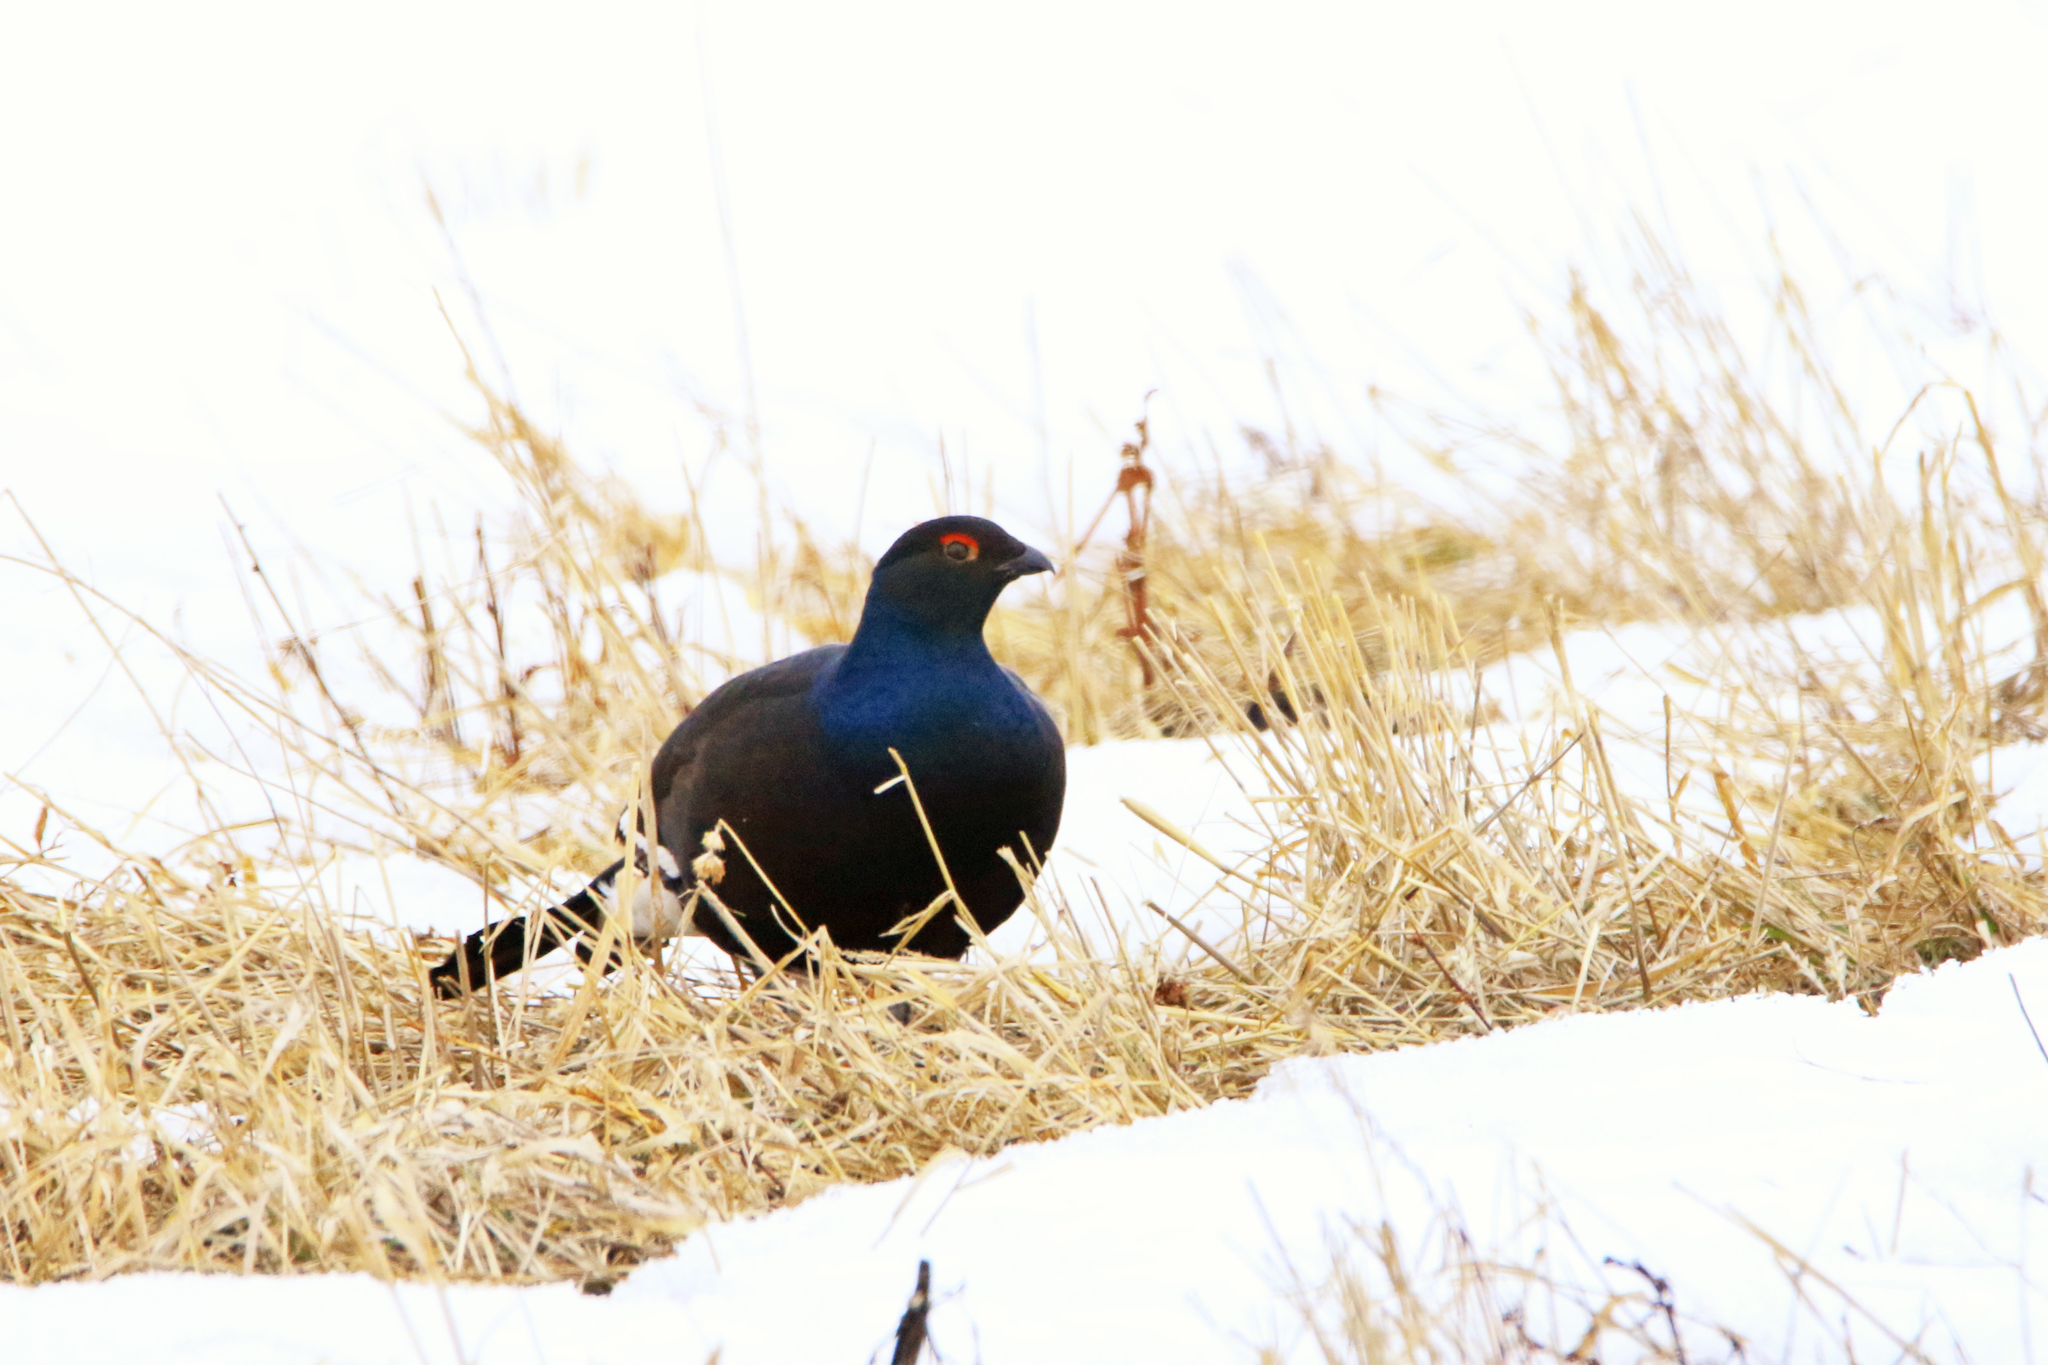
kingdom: Animalia
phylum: Chordata
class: Aves
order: Galliformes
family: Phasianidae
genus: Lyrurus
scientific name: Lyrurus tetrix
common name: Black grouse
